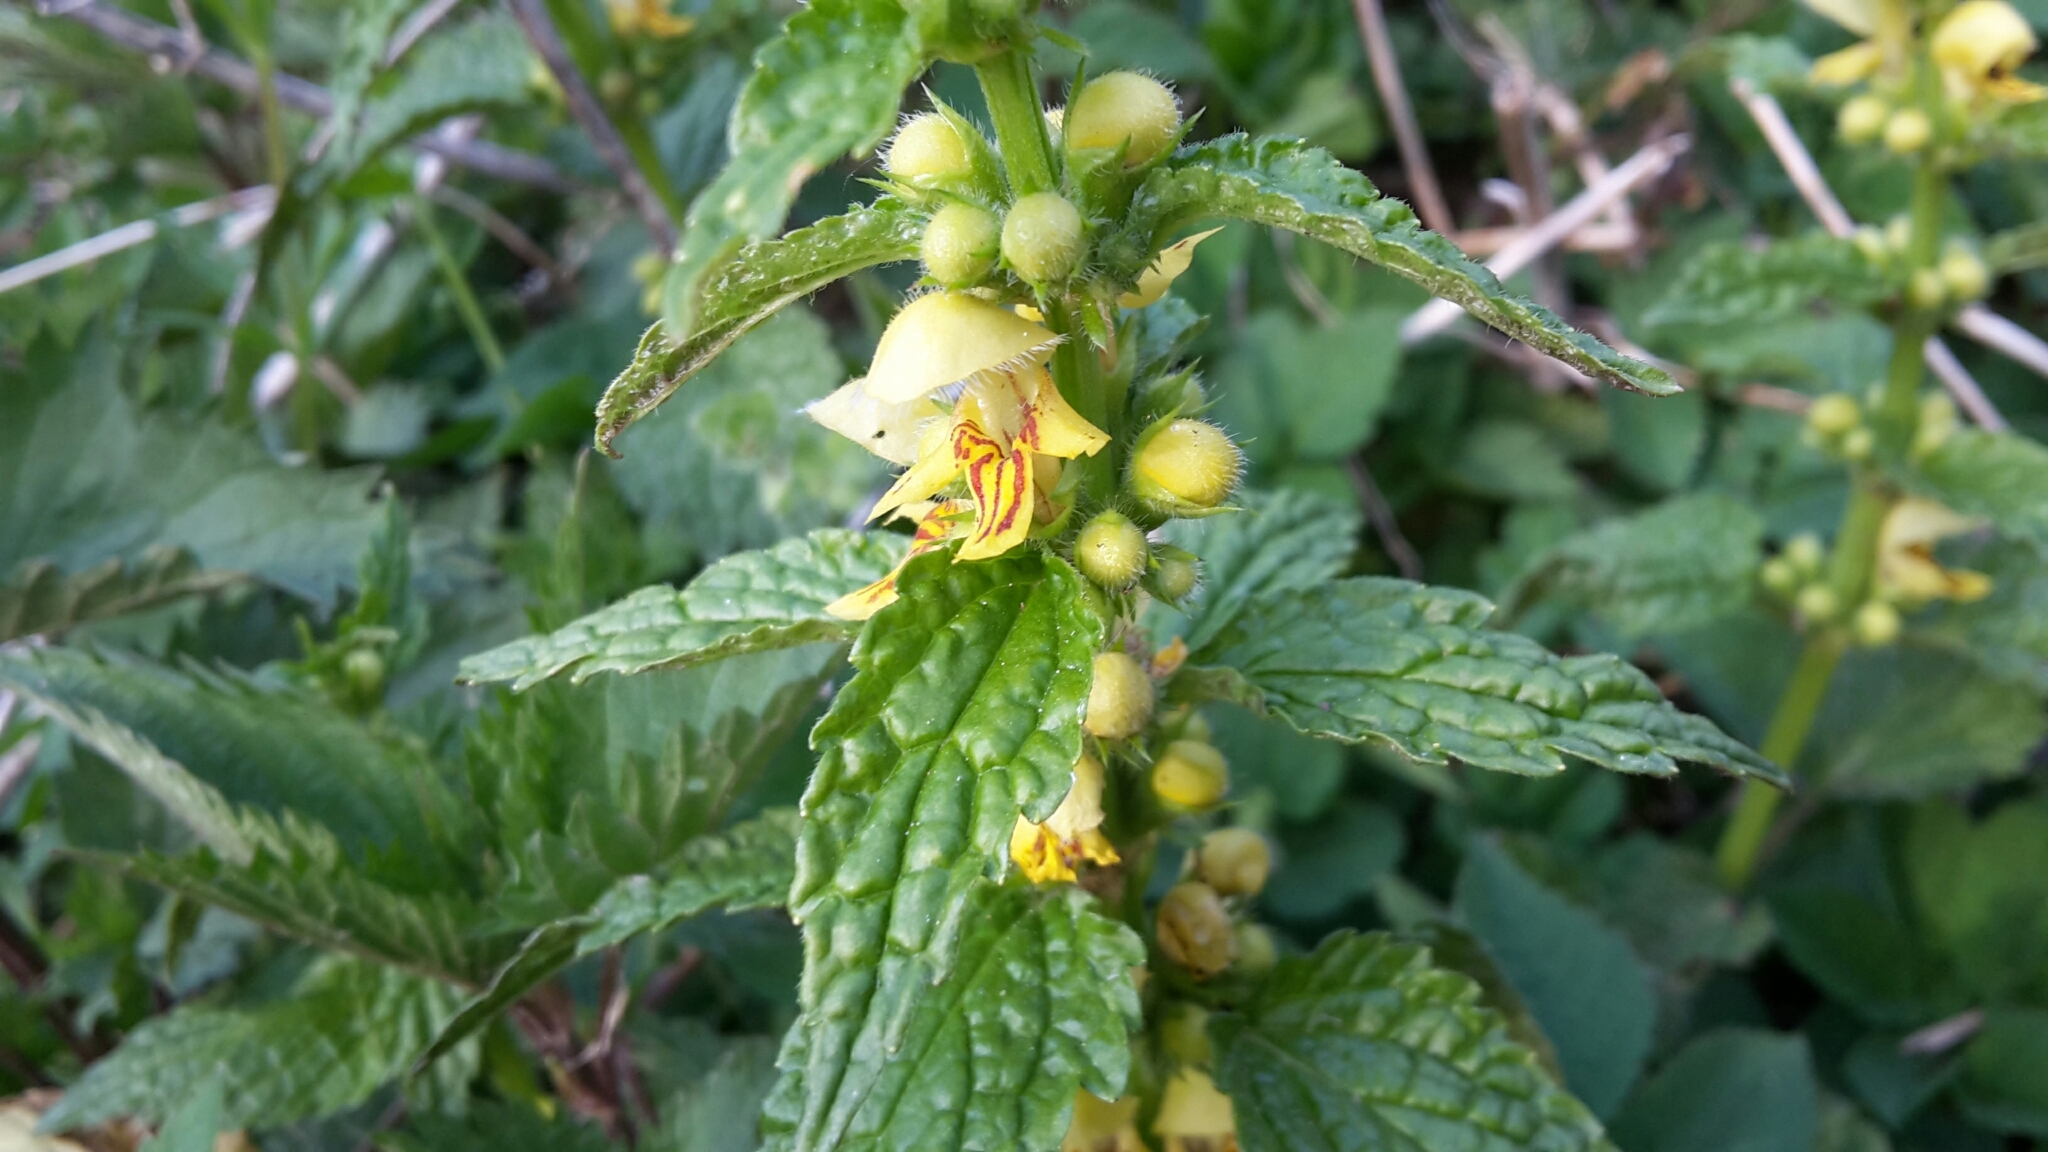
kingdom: Plantae
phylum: Tracheophyta
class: Magnoliopsida
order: Lamiales
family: Lamiaceae
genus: Lamium
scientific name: Lamium galeobdolon
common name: Yellow archangel
